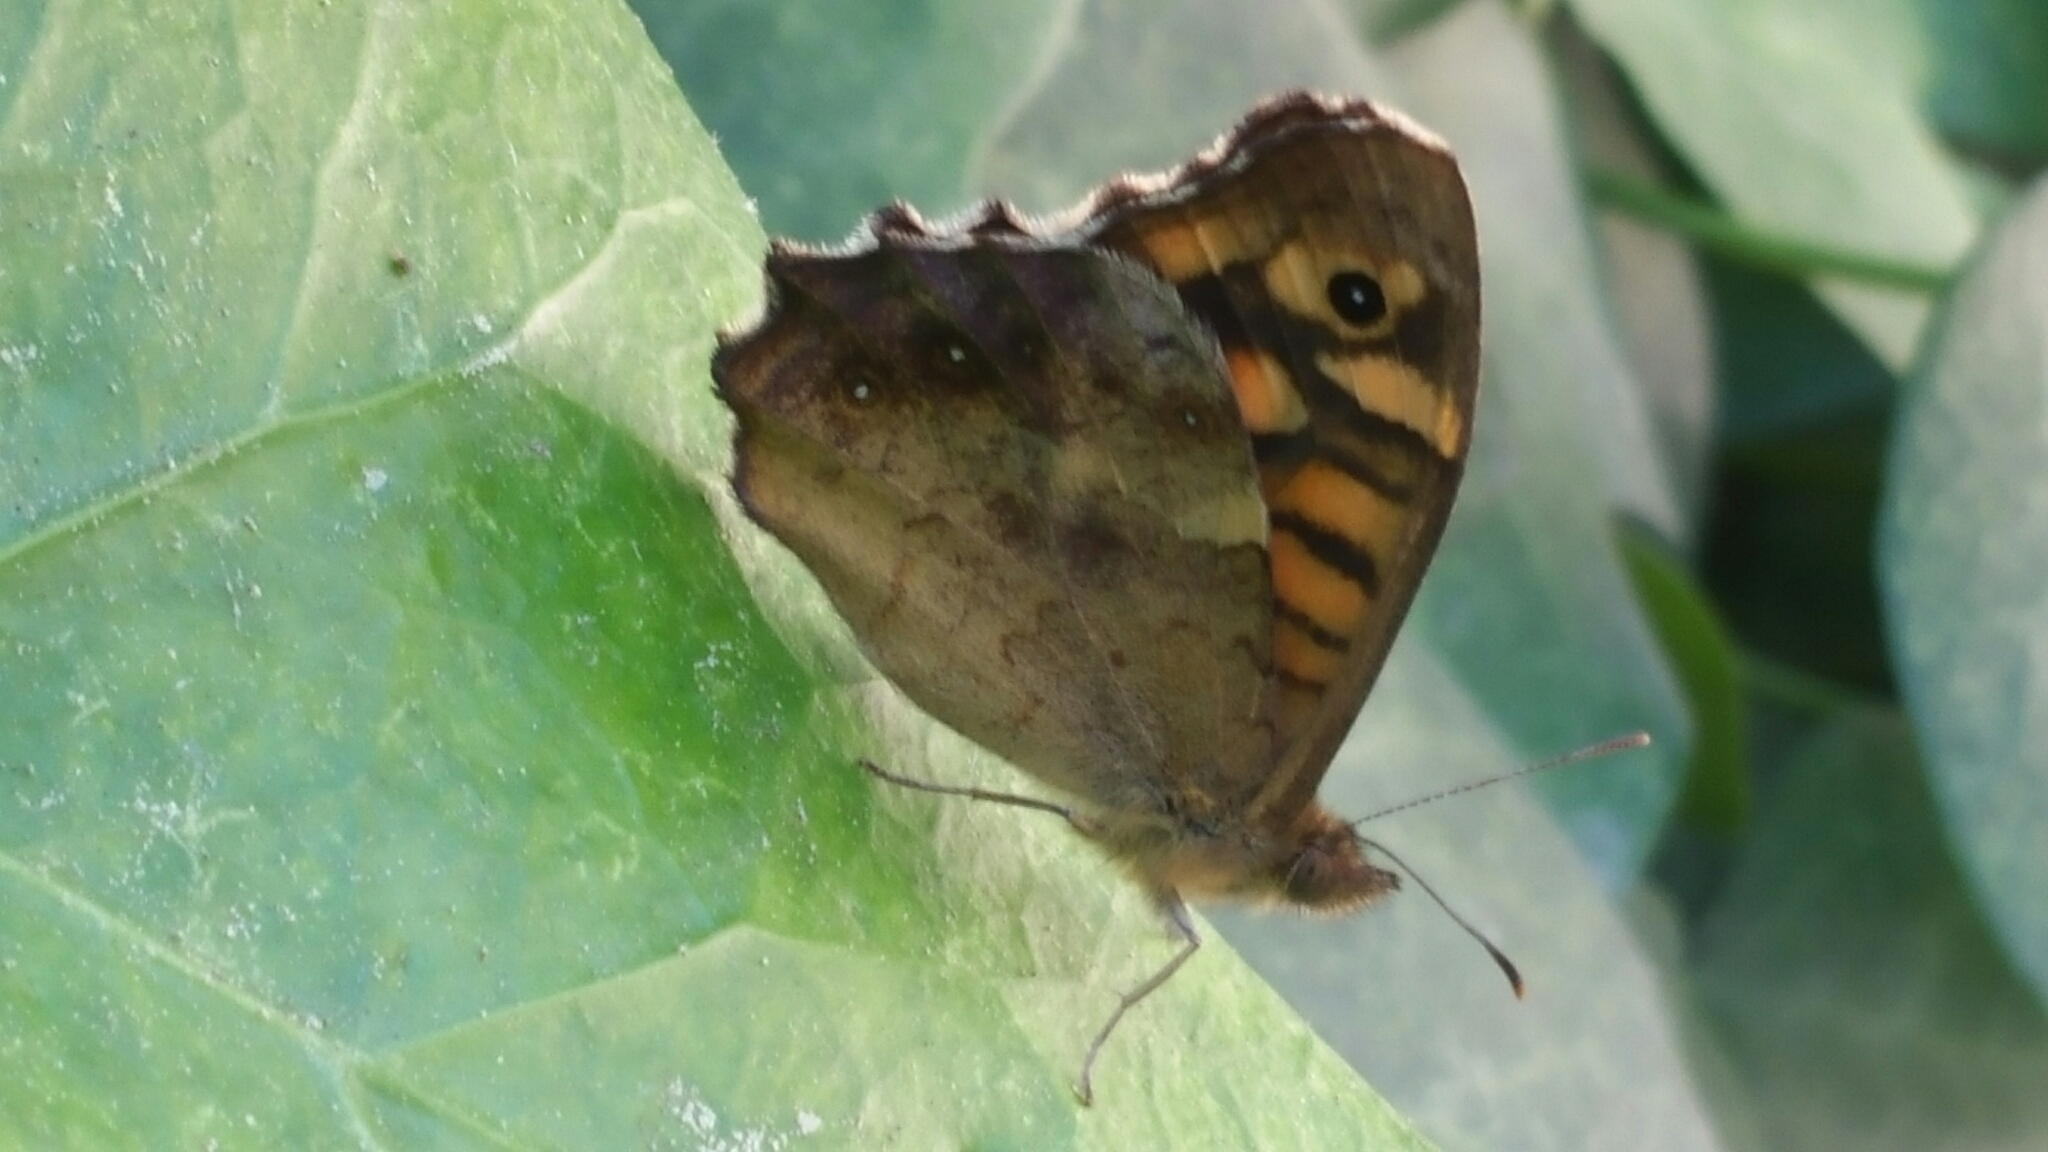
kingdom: Animalia
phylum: Arthropoda
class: Insecta
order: Lepidoptera
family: Nymphalidae
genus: Pararge
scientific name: Pararge aegeria
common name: Speckled wood
